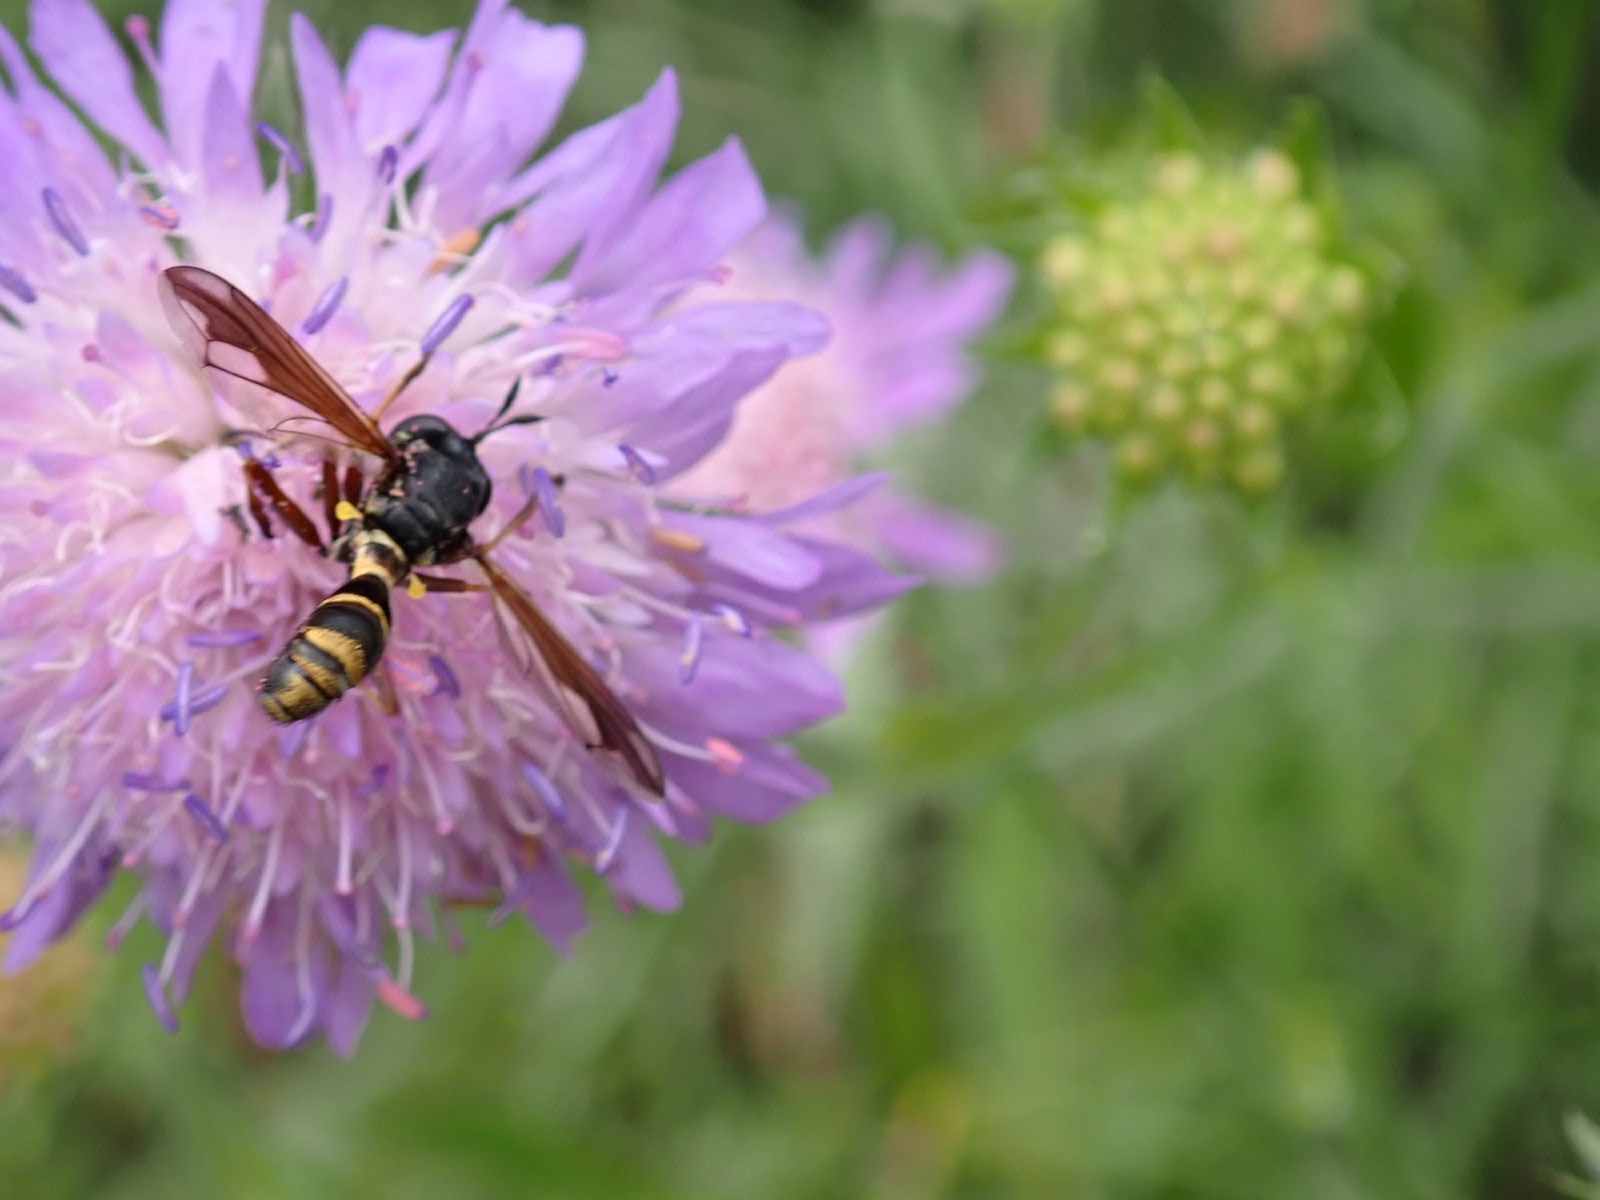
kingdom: Animalia
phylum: Arthropoda
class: Insecta
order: Diptera
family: Conopidae
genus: Physocephala
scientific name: Physocephala rufipes
